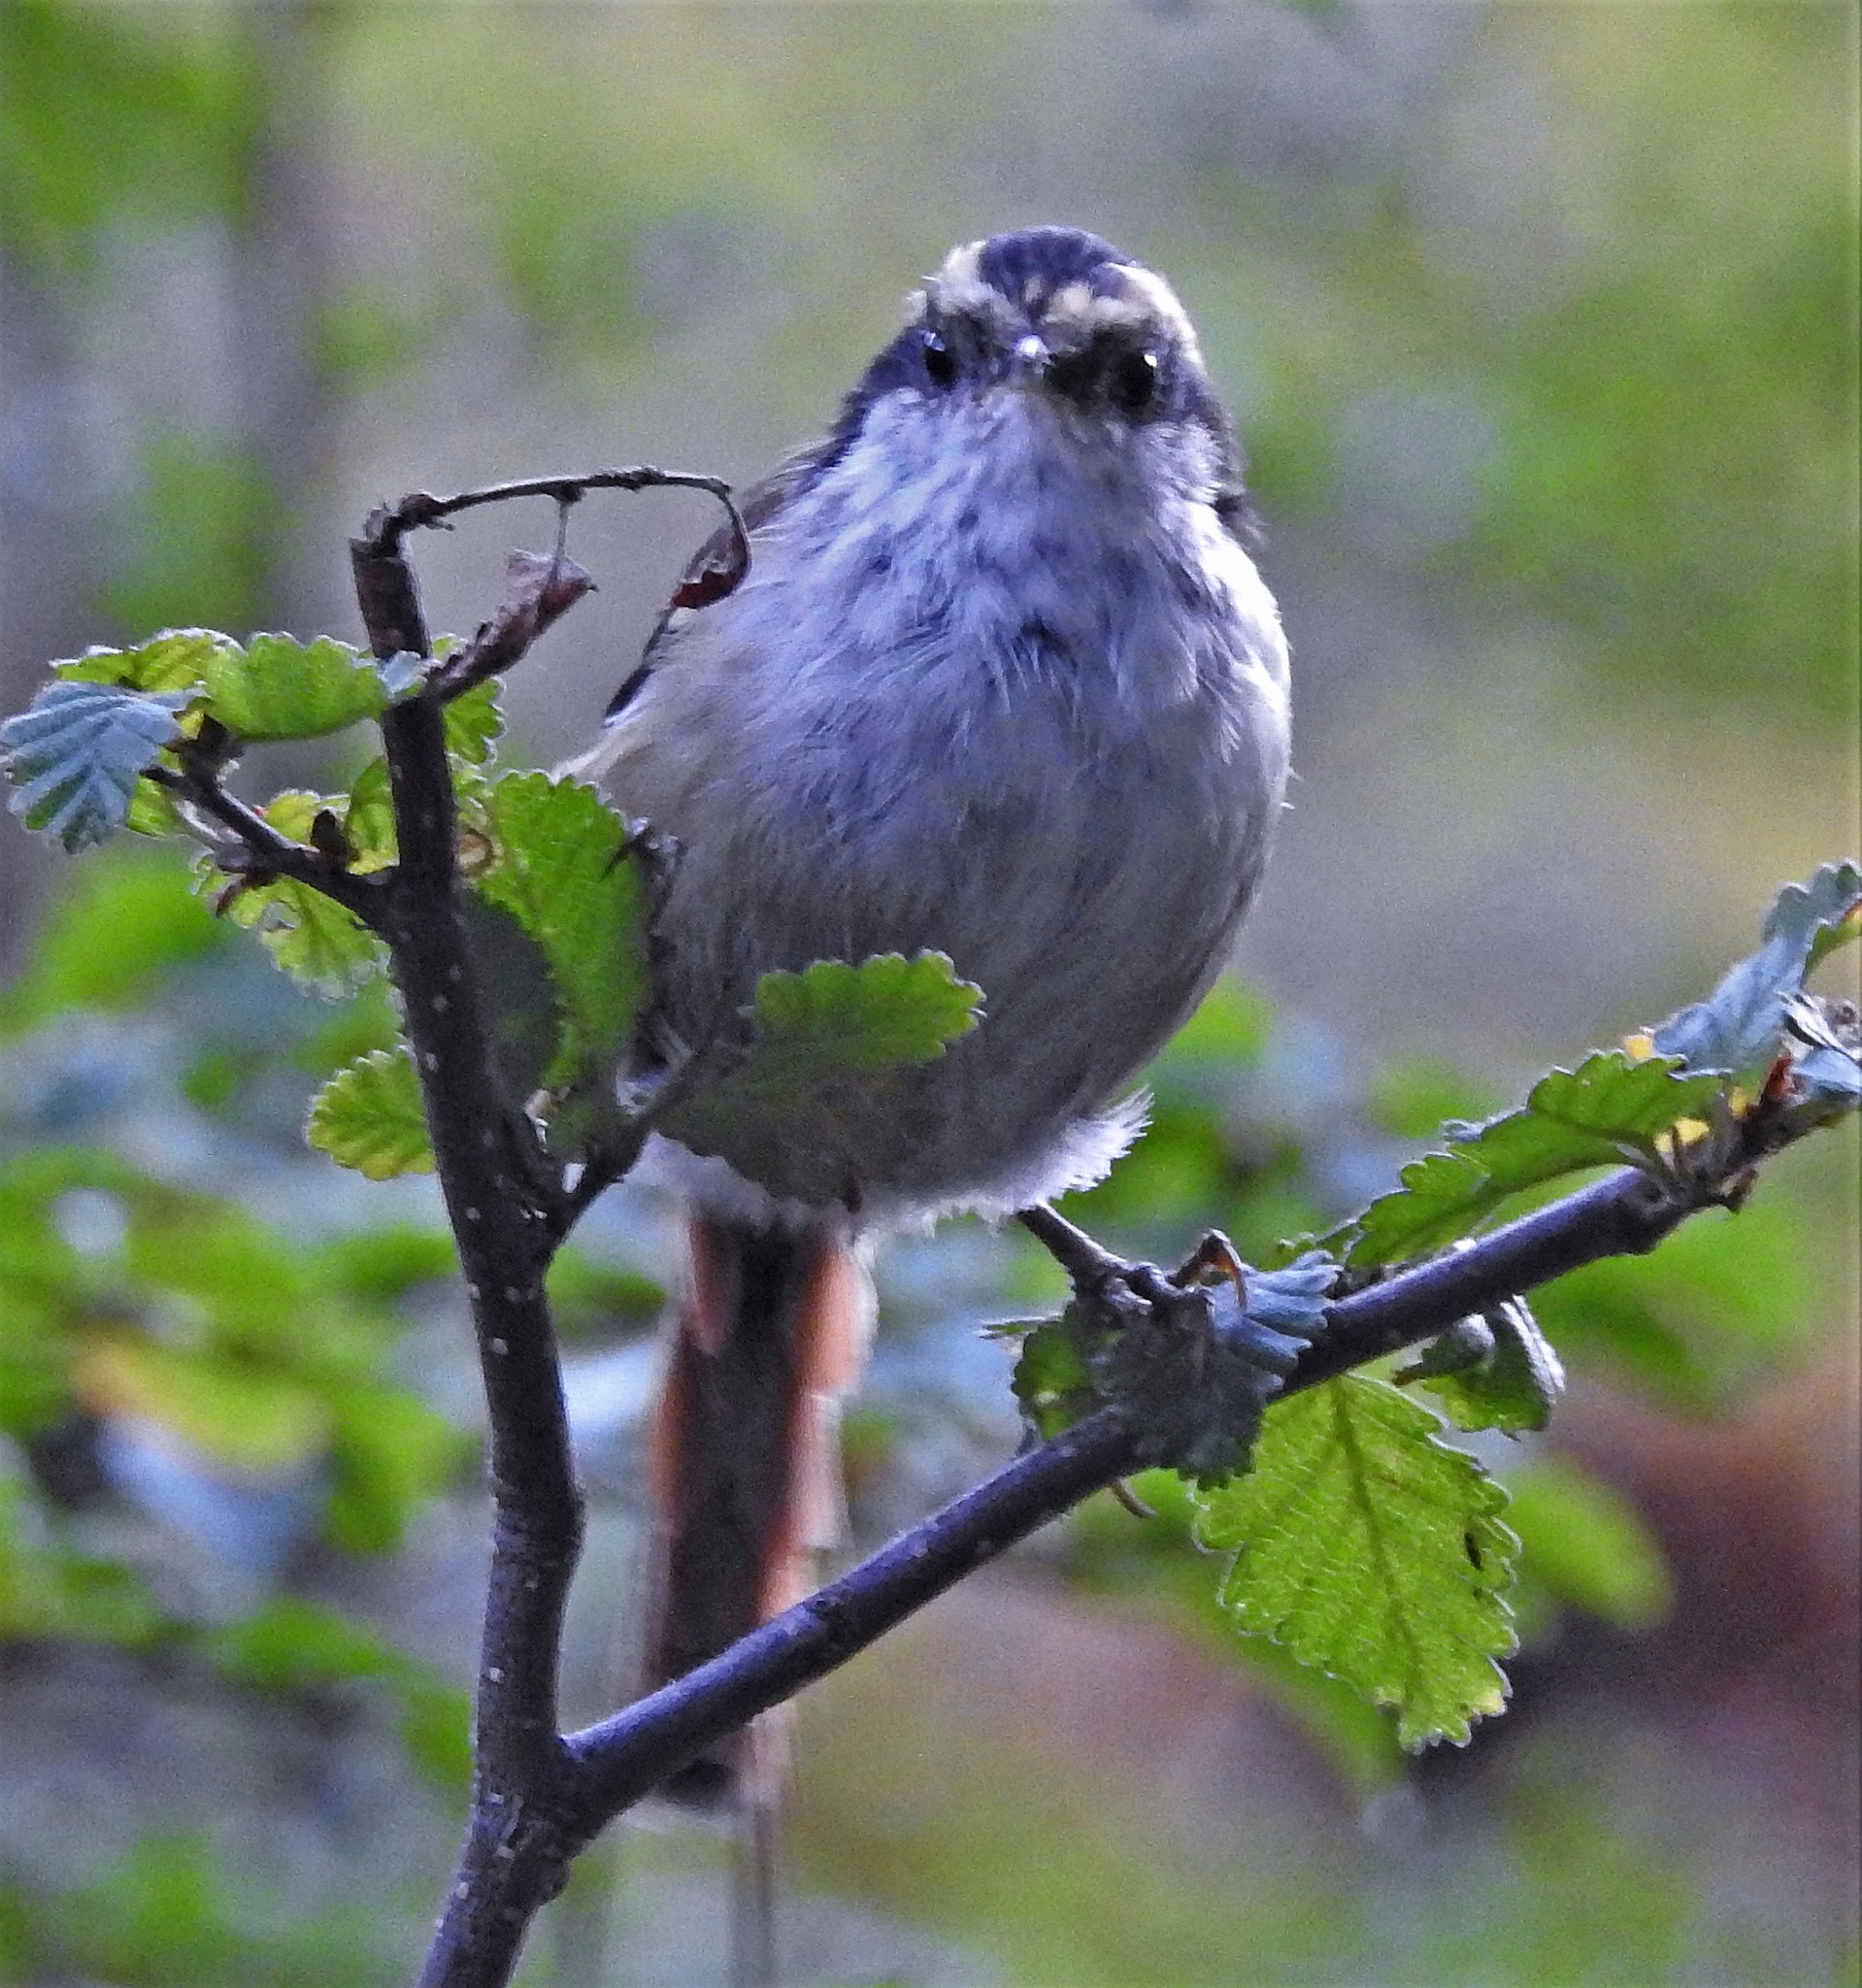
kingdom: Animalia
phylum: Chordata
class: Aves
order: Passeriformes
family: Furnariidae
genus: Aphrastura
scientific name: Aphrastura spinicauda
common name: Thorn-tailed rayadito
